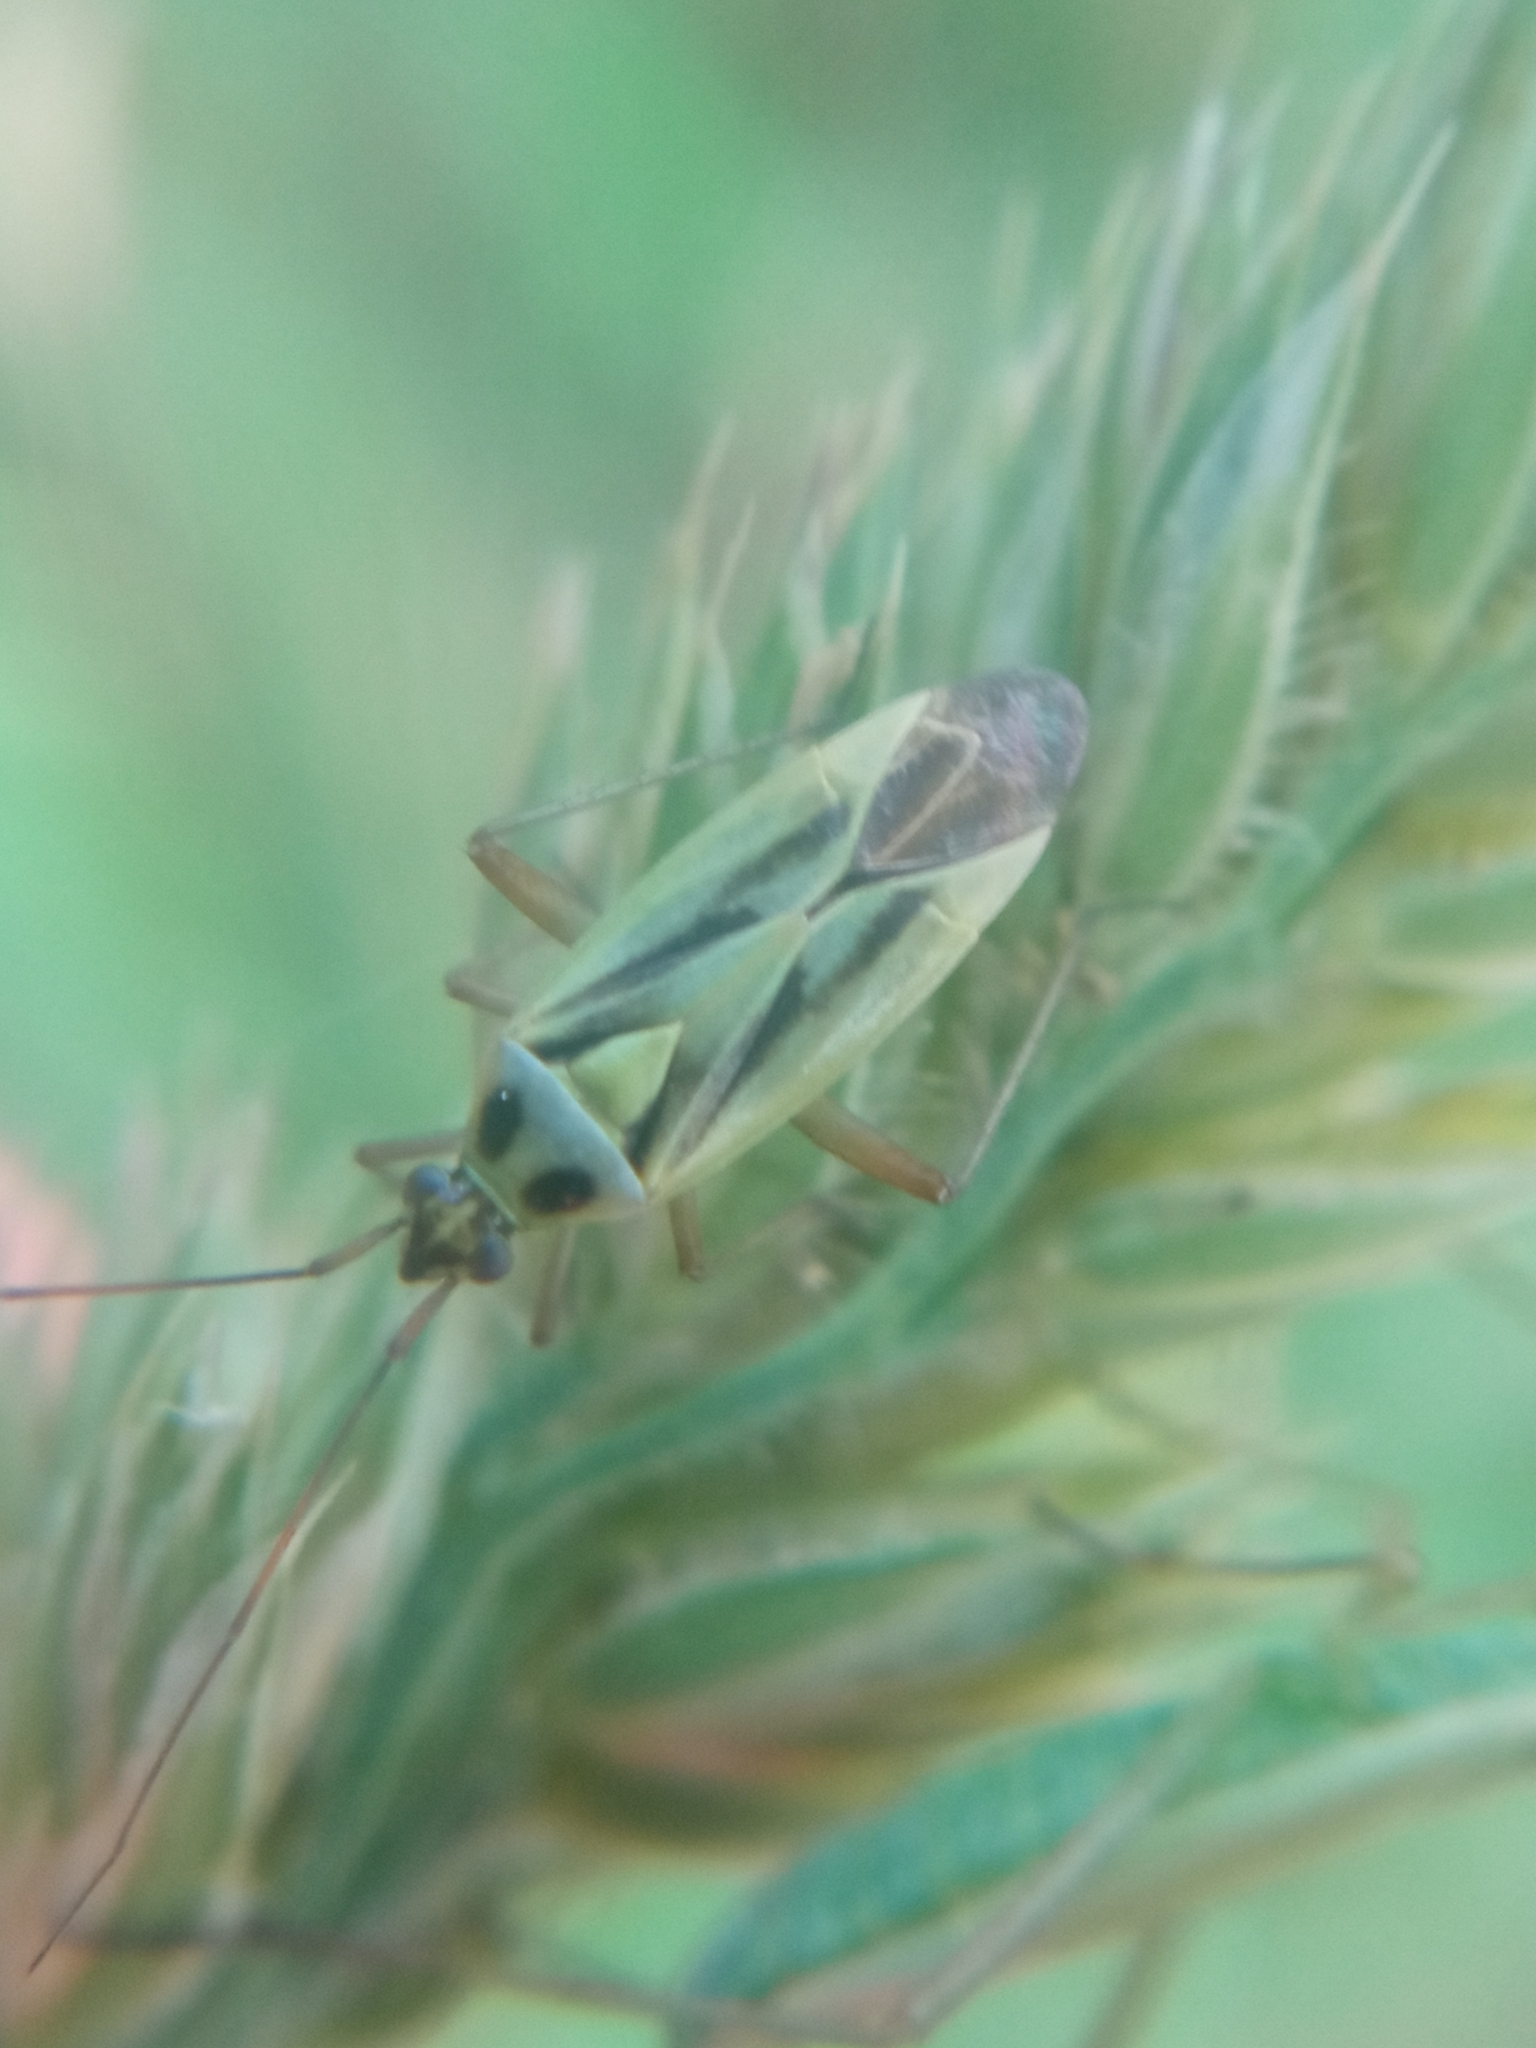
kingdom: Animalia
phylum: Arthropoda
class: Insecta
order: Hemiptera
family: Miridae
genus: Stenotus
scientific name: Stenotus binotatus
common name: Plant bug
